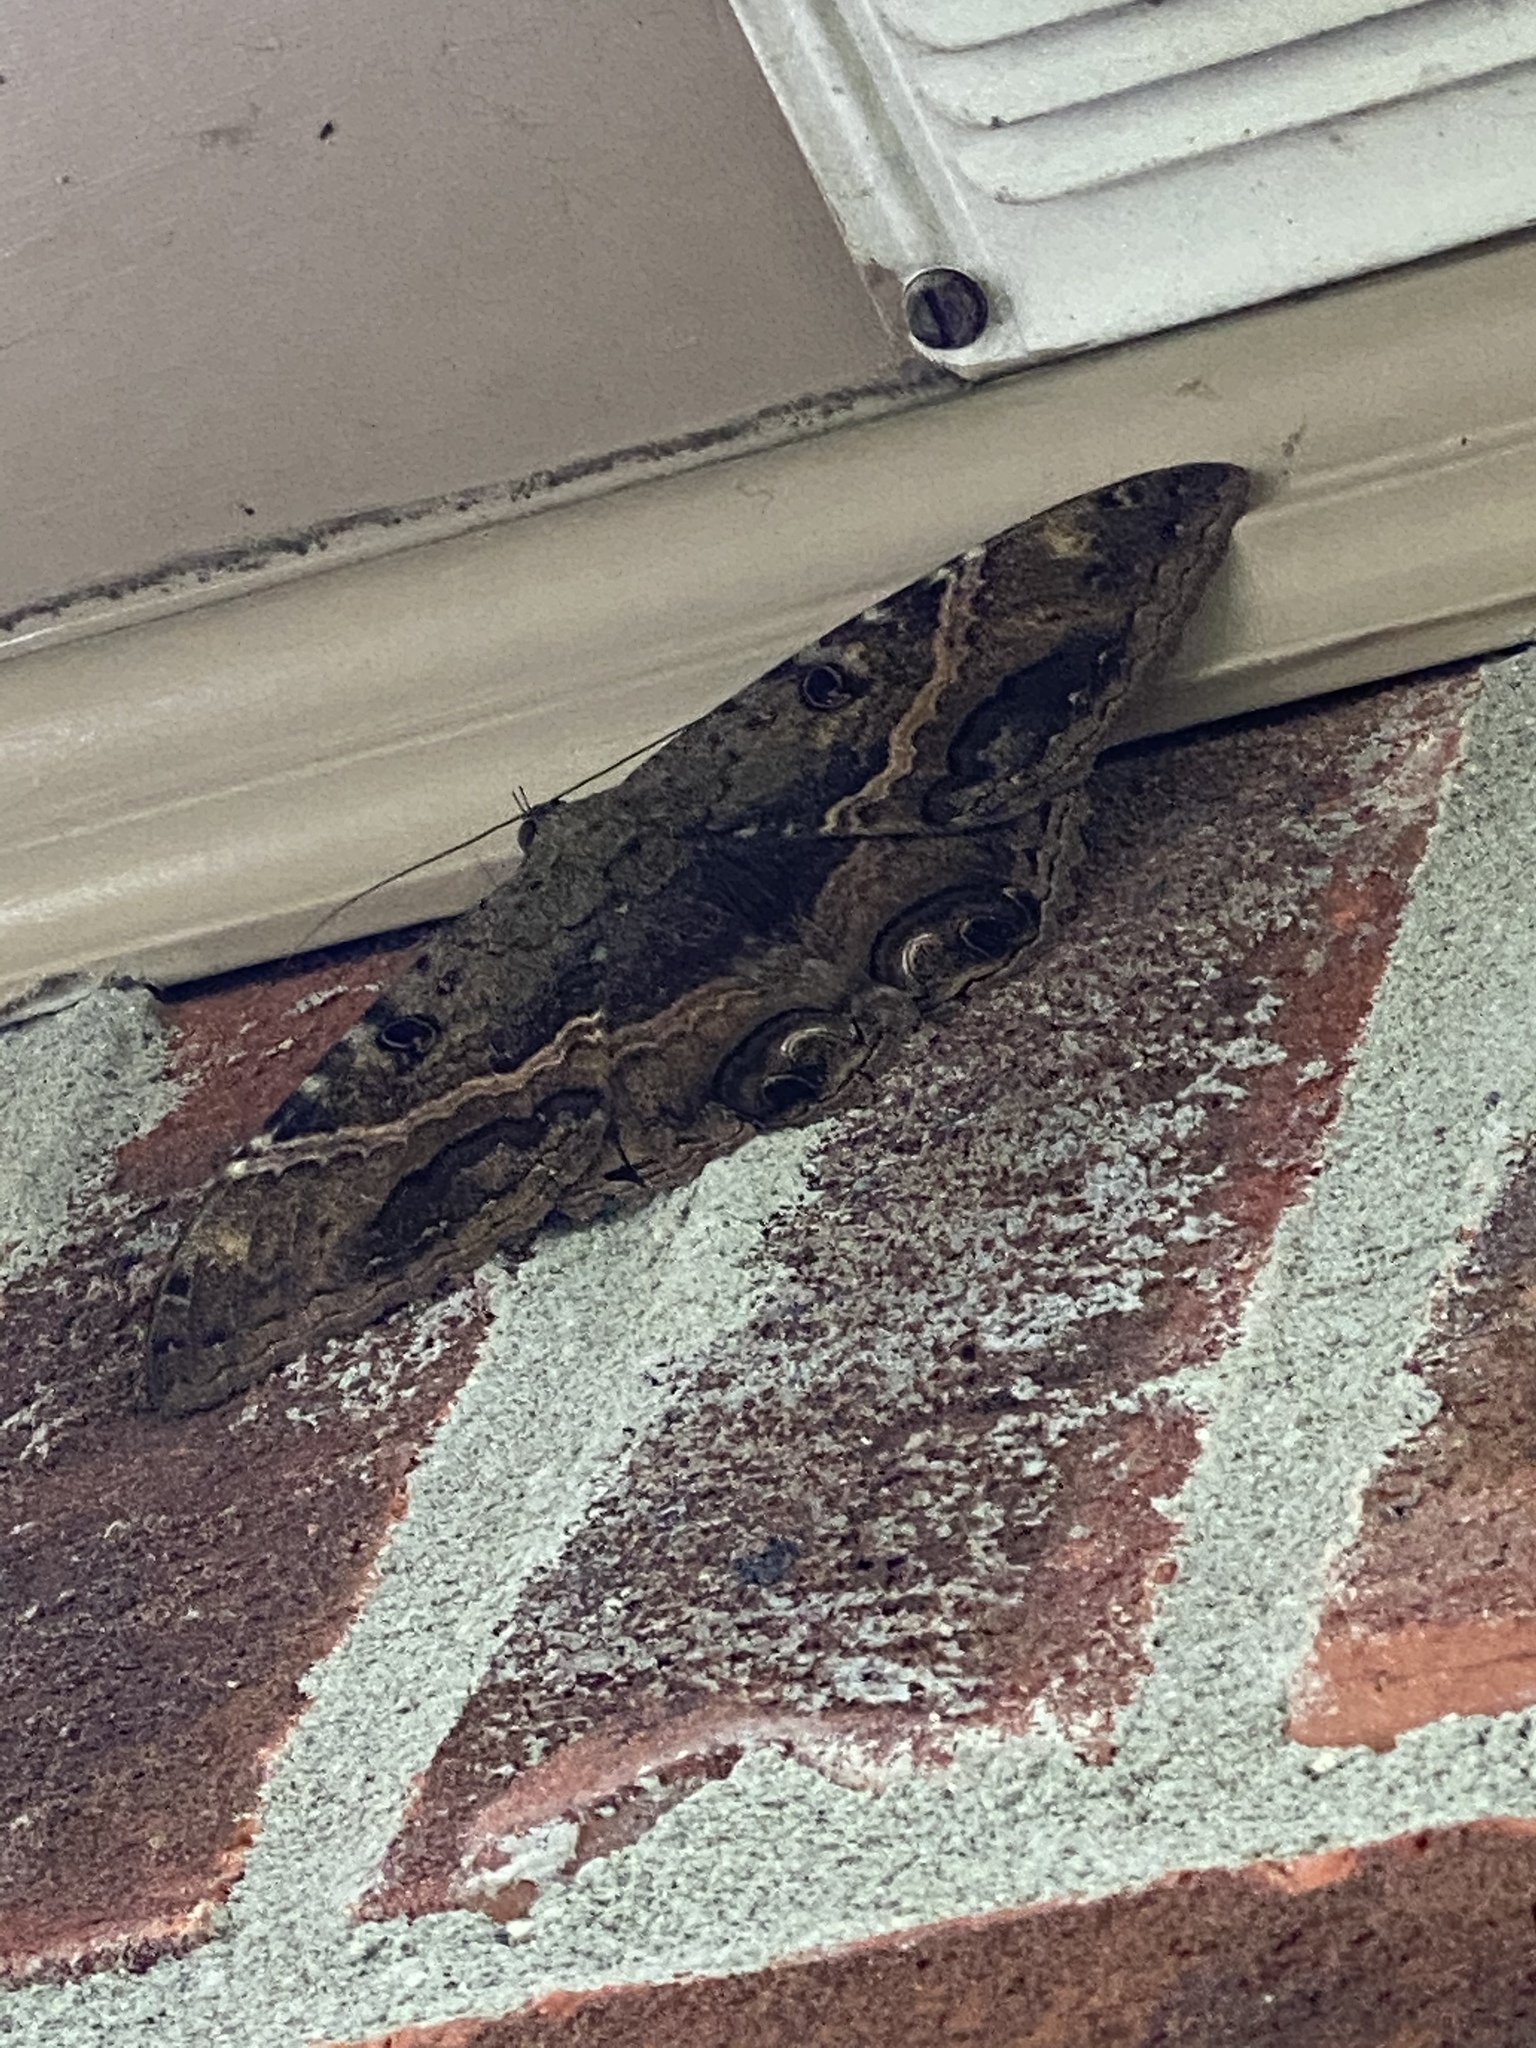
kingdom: Animalia
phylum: Arthropoda
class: Insecta
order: Lepidoptera
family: Erebidae
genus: Ascalapha
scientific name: Ascalapha odorata
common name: Black witch
